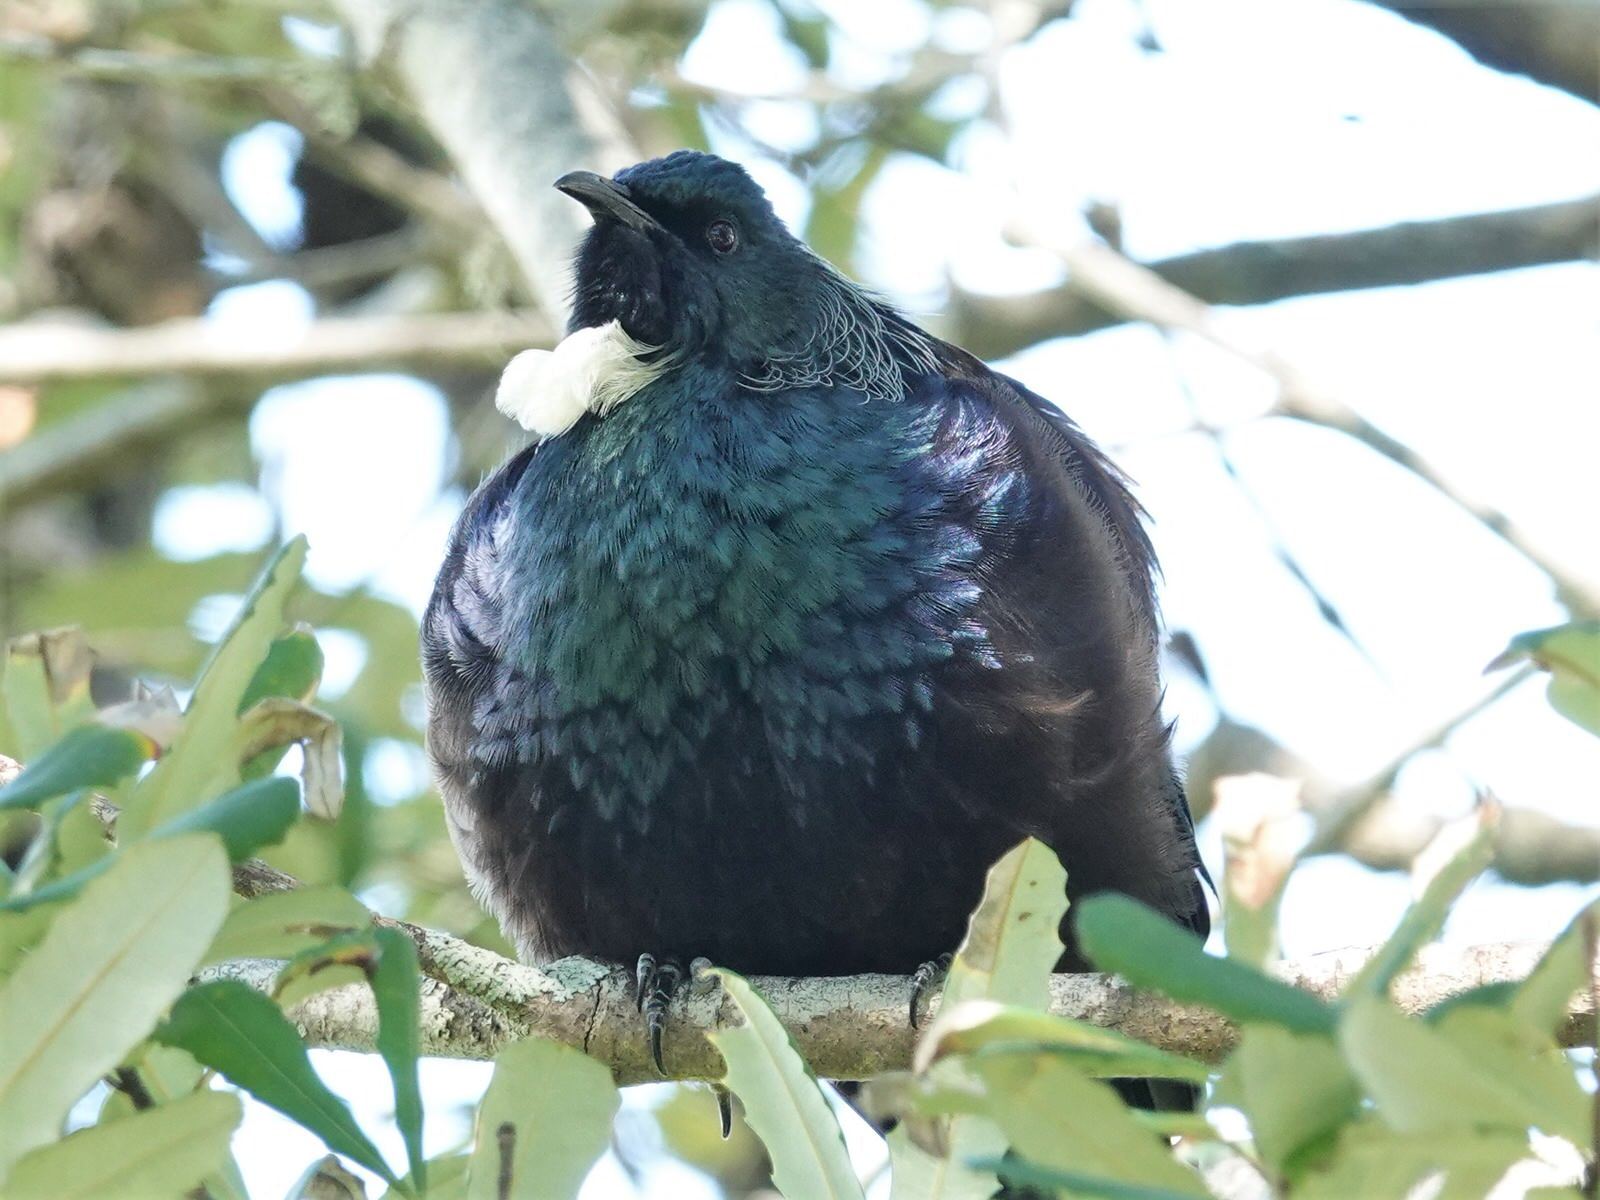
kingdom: Animalia
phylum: Chordata
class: Aves
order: Passeriformes
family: Meliphagidae
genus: Prosthemadera
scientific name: Prosthemadera novaeseelandiae
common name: Tui
